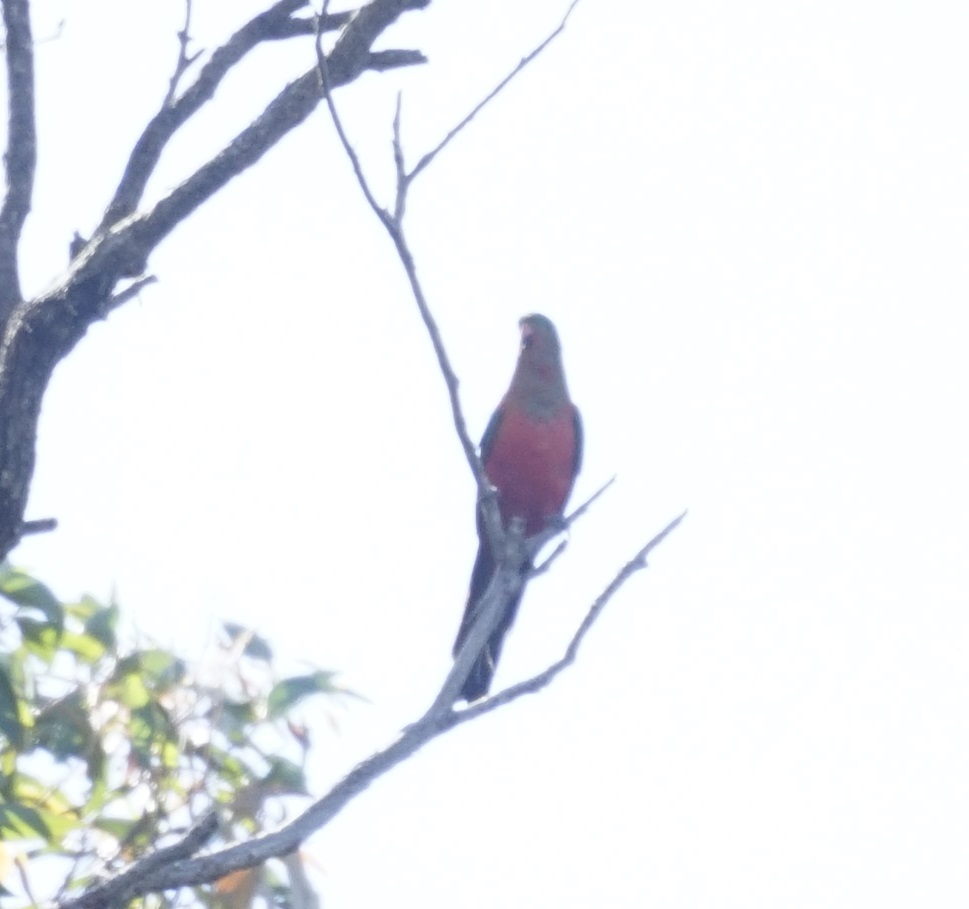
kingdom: Animalia
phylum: Chordata
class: Aves
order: Psittaciformes
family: Psittacidae
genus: Alisterus
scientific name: Alisterus scapularis
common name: Australian king parrot
